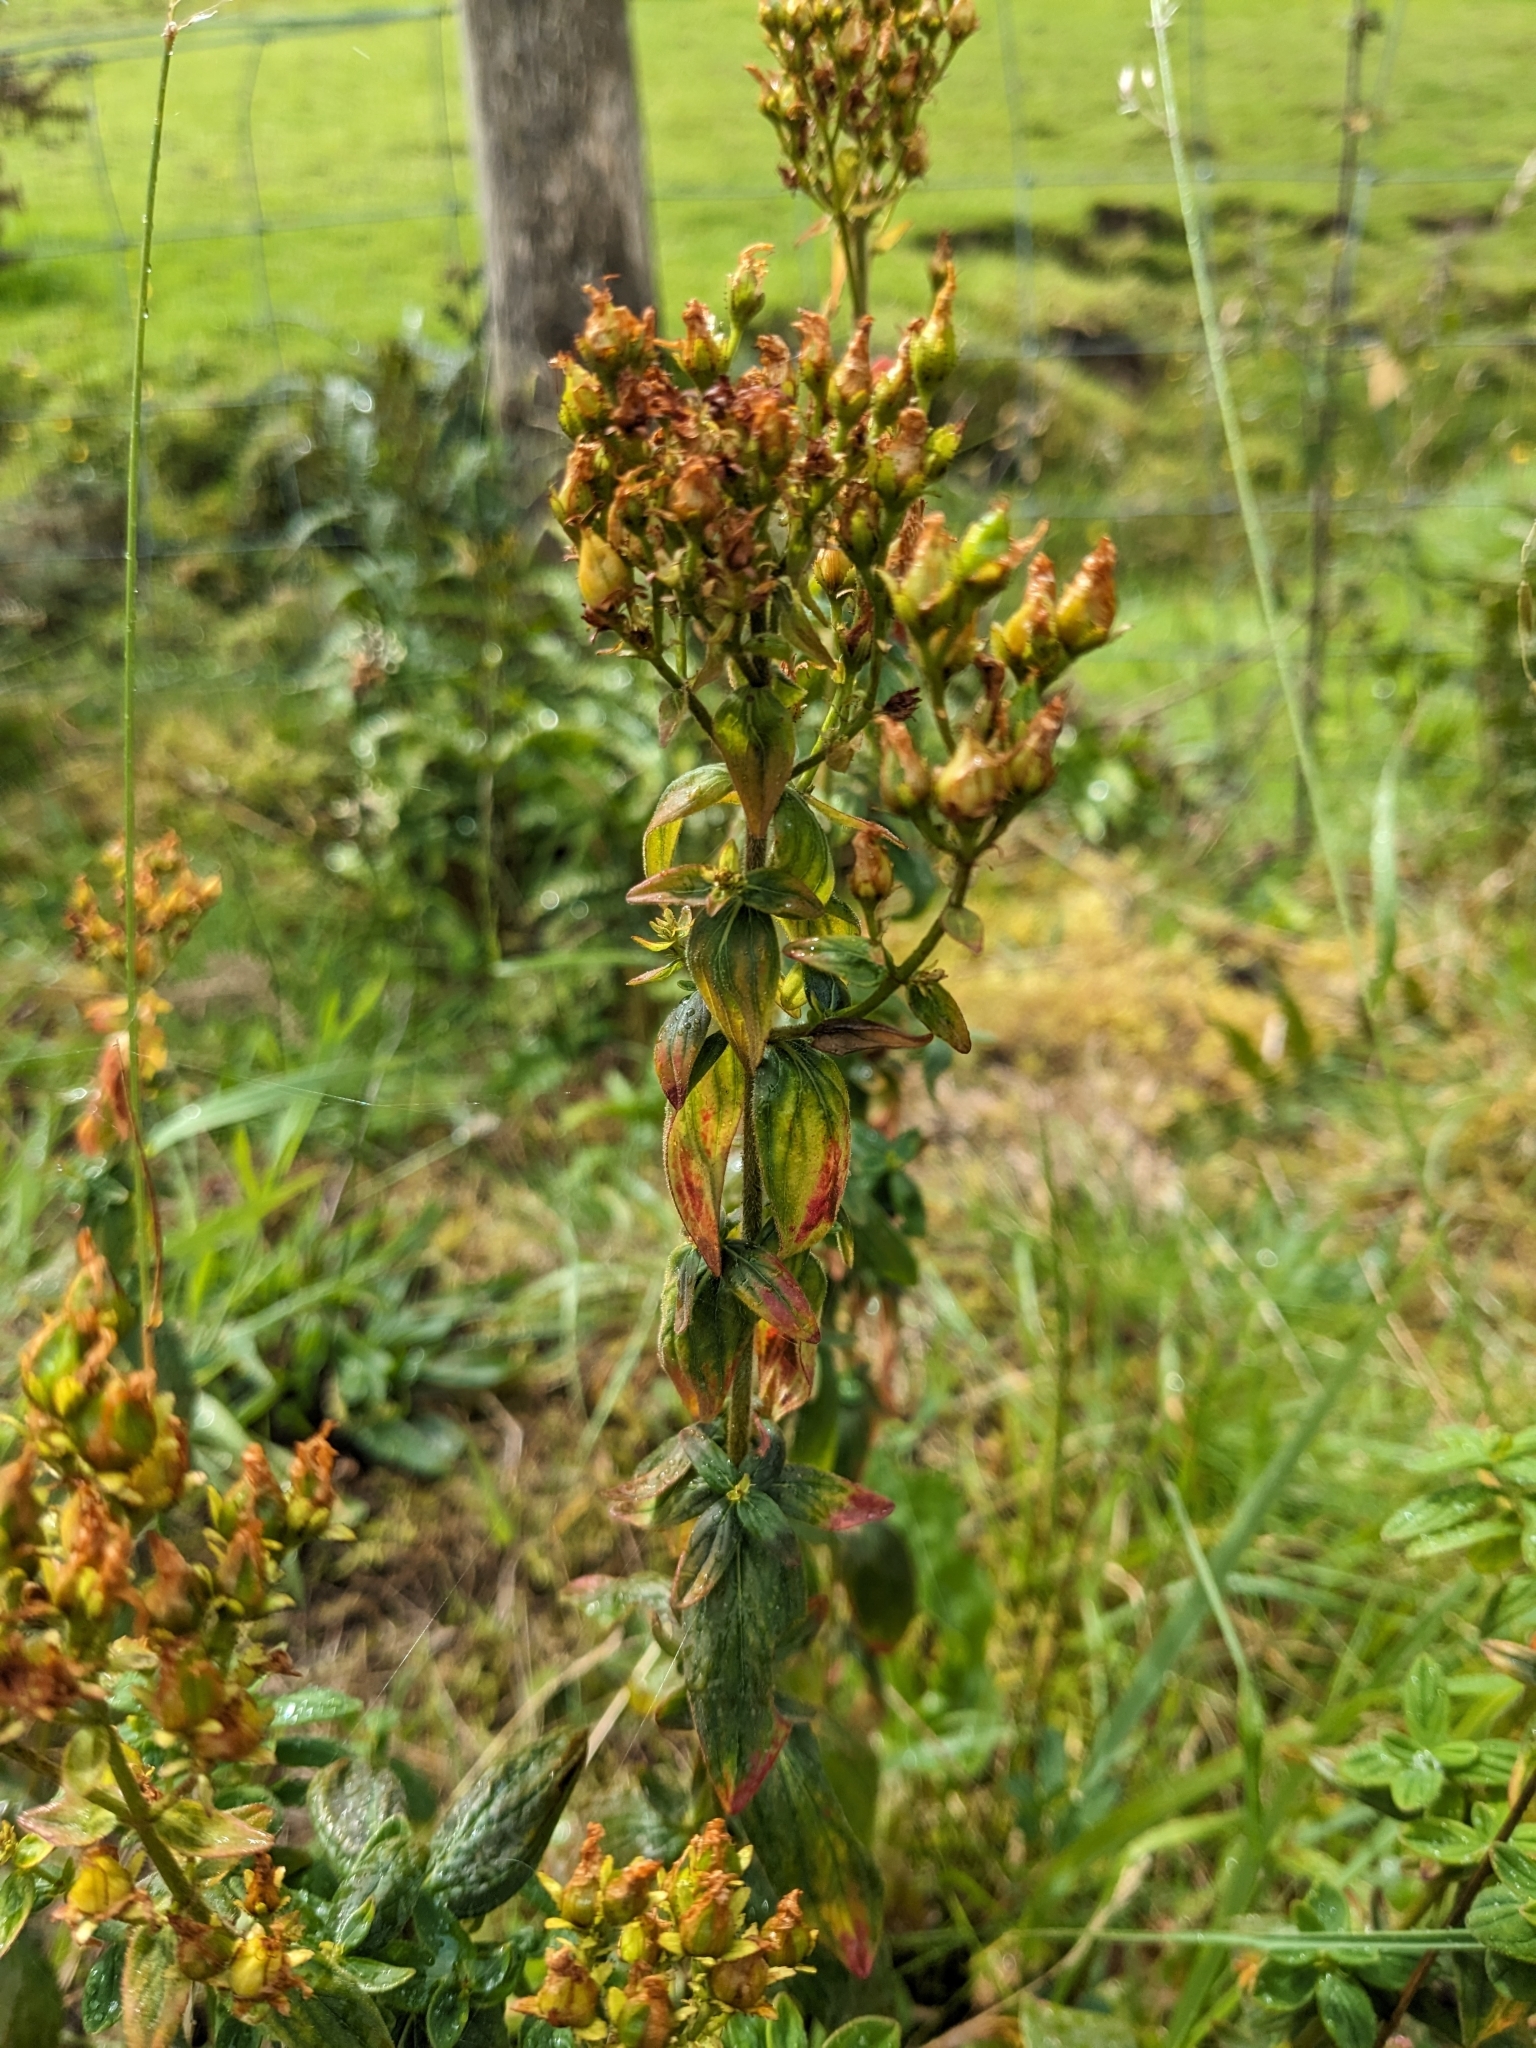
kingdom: Plantae
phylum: Tracheophyta
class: Magnoliopsida
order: Malpighiales
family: Hypericaceae
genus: Hypericum
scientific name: Hypericum hirsutum
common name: Hairy st. john's-wort
